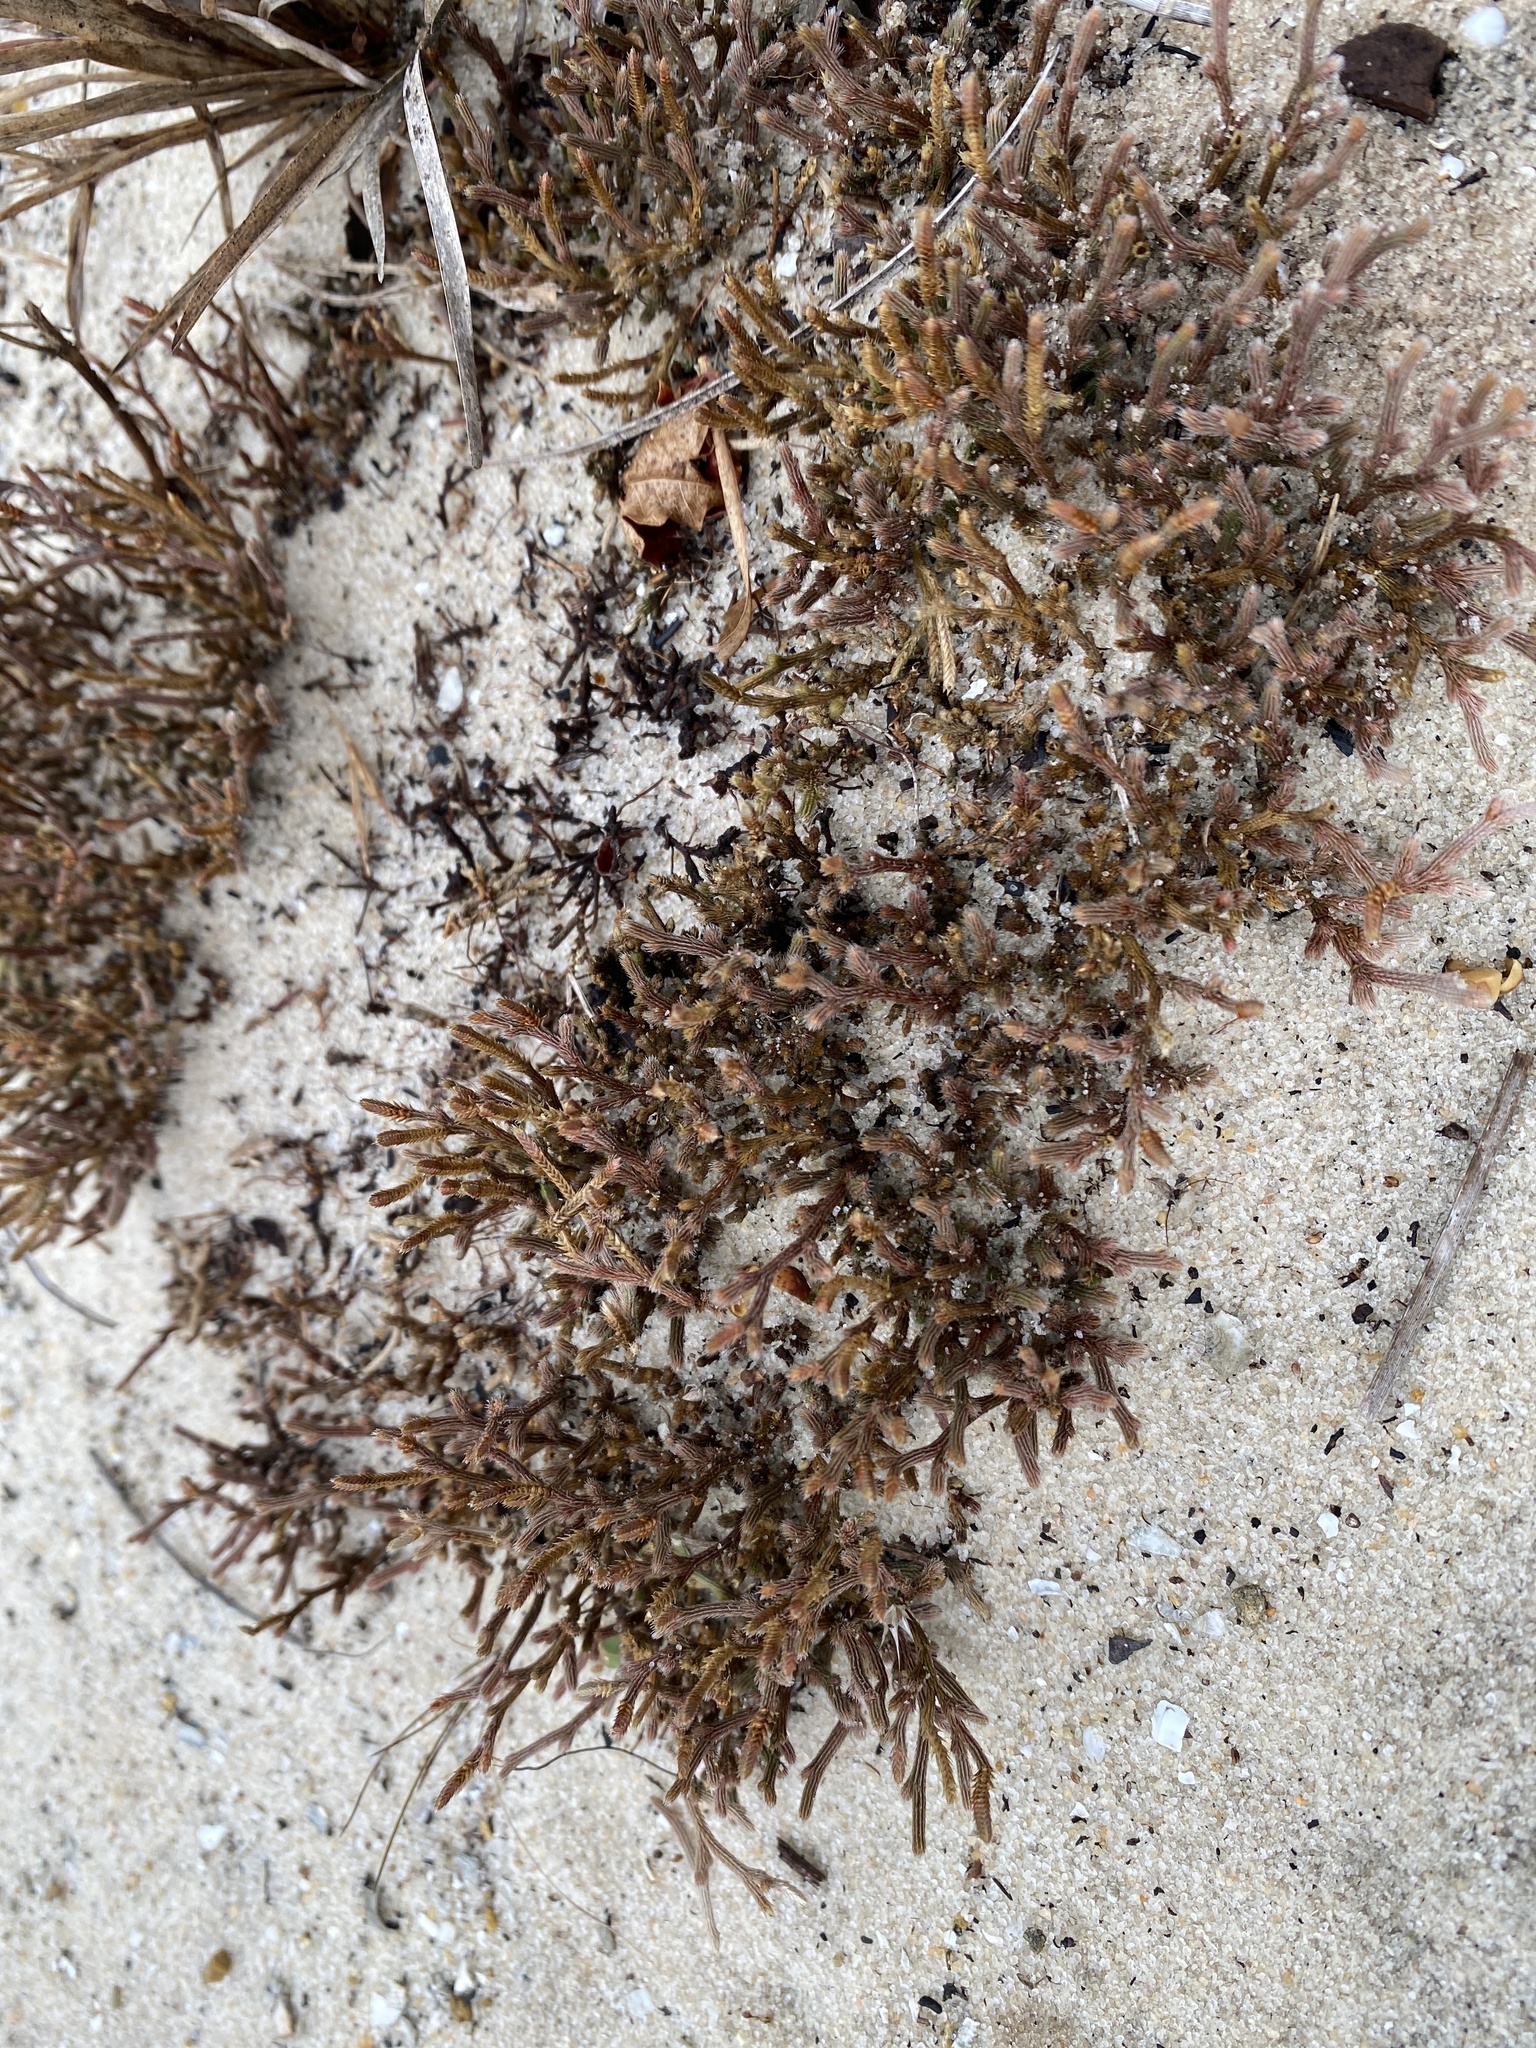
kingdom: Plantae
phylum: Tracheophyta
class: Lycopodiopsida
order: Selaginellales
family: Selaginellaceae
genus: Selaginella
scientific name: Selaginella arenicola
